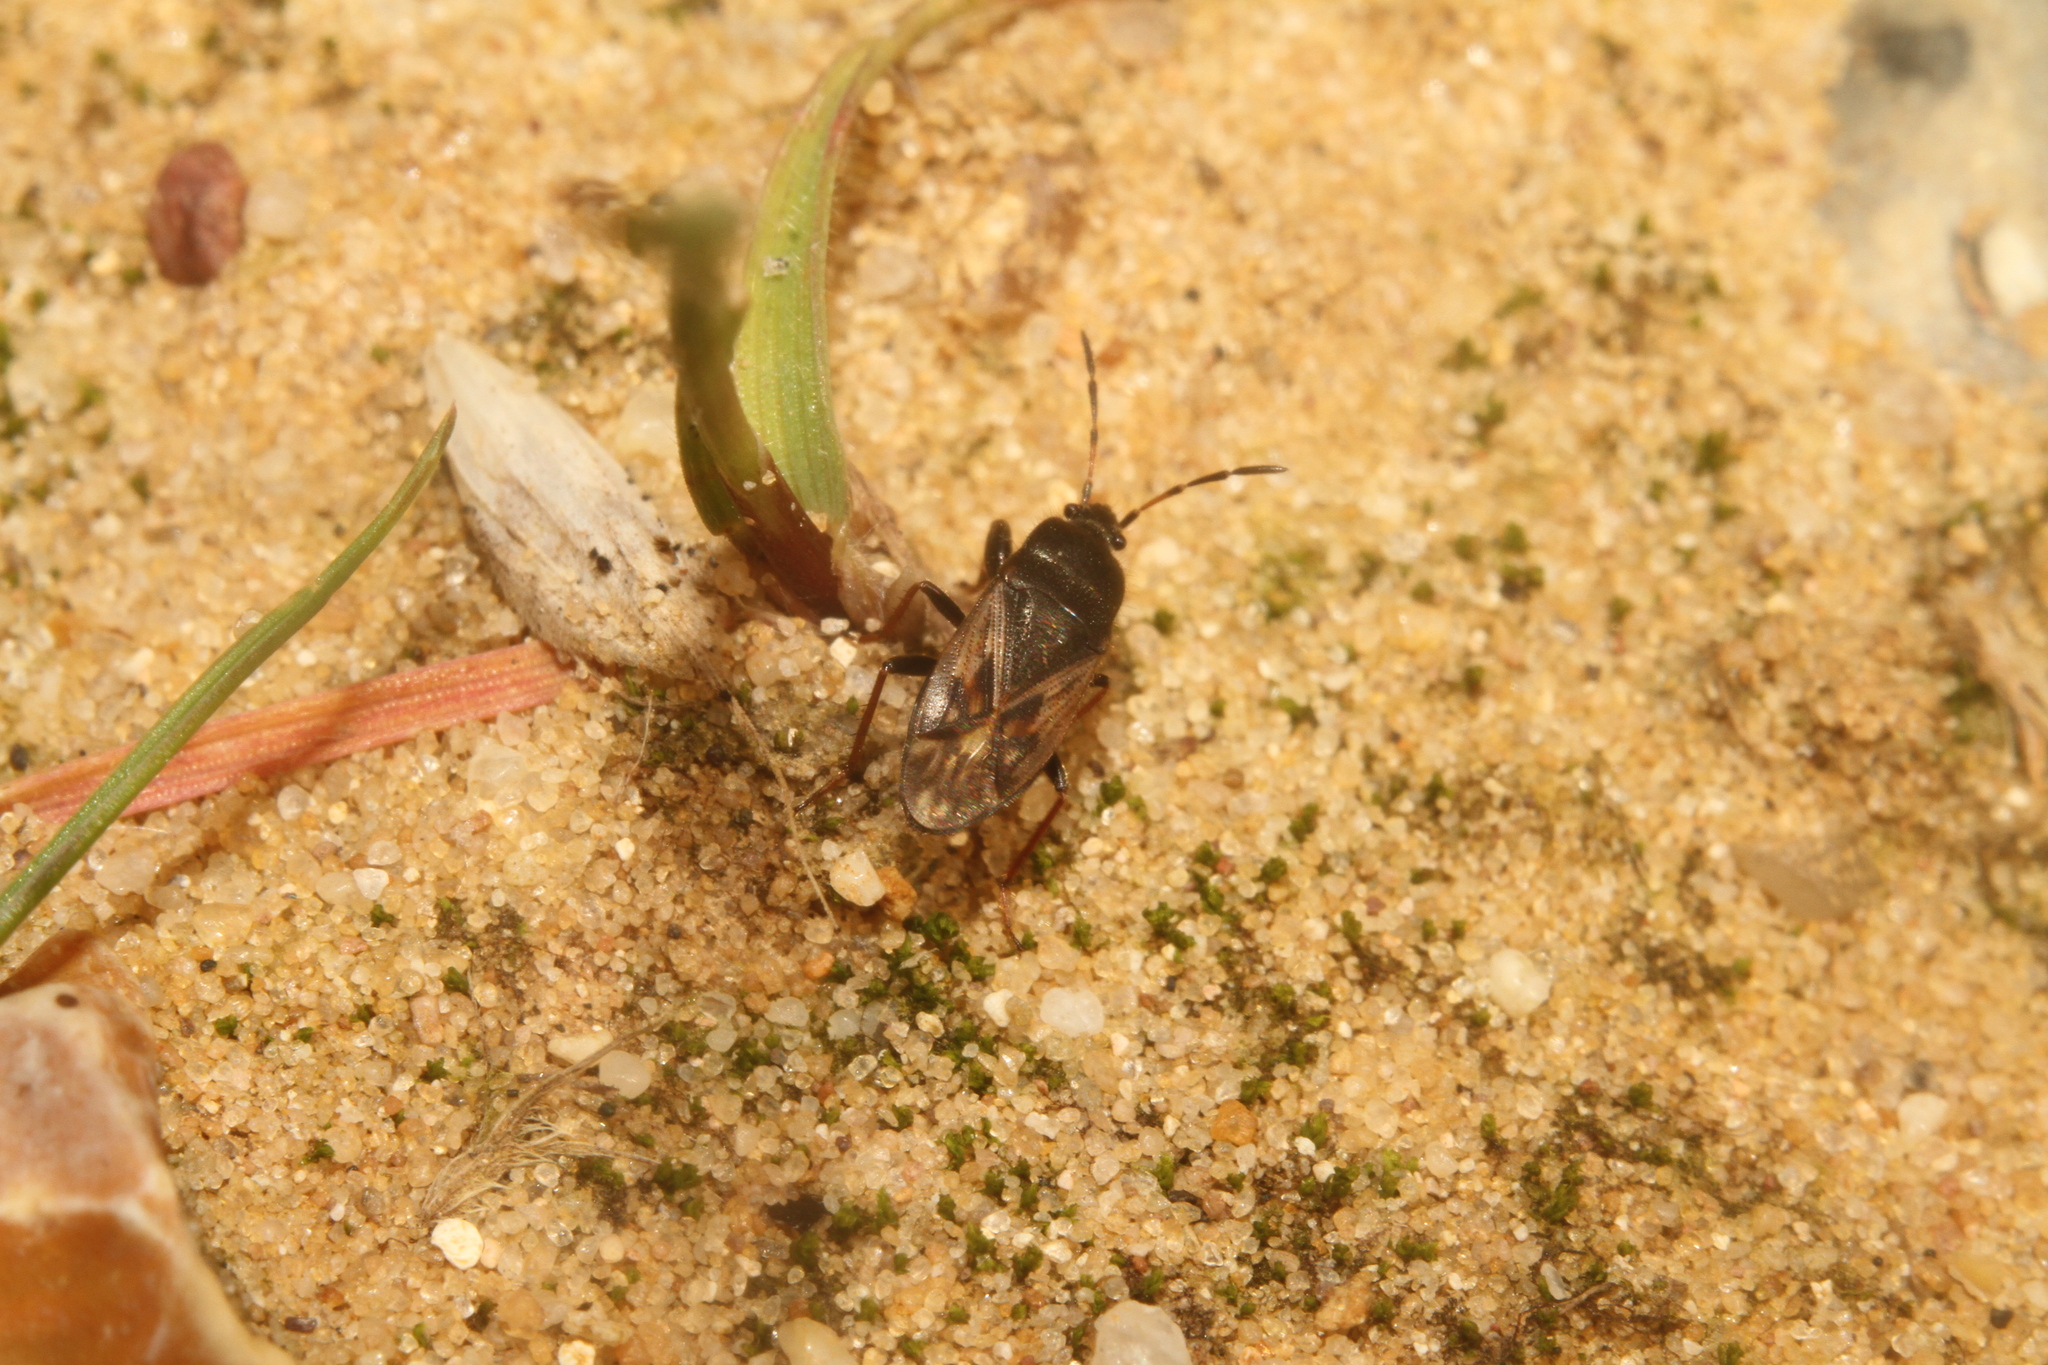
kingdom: Animalia
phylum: Arthropoda
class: Insecta
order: Hemiptera
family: Rhyparochromidae
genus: Megalonotus
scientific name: Megalonotus emarginatus
